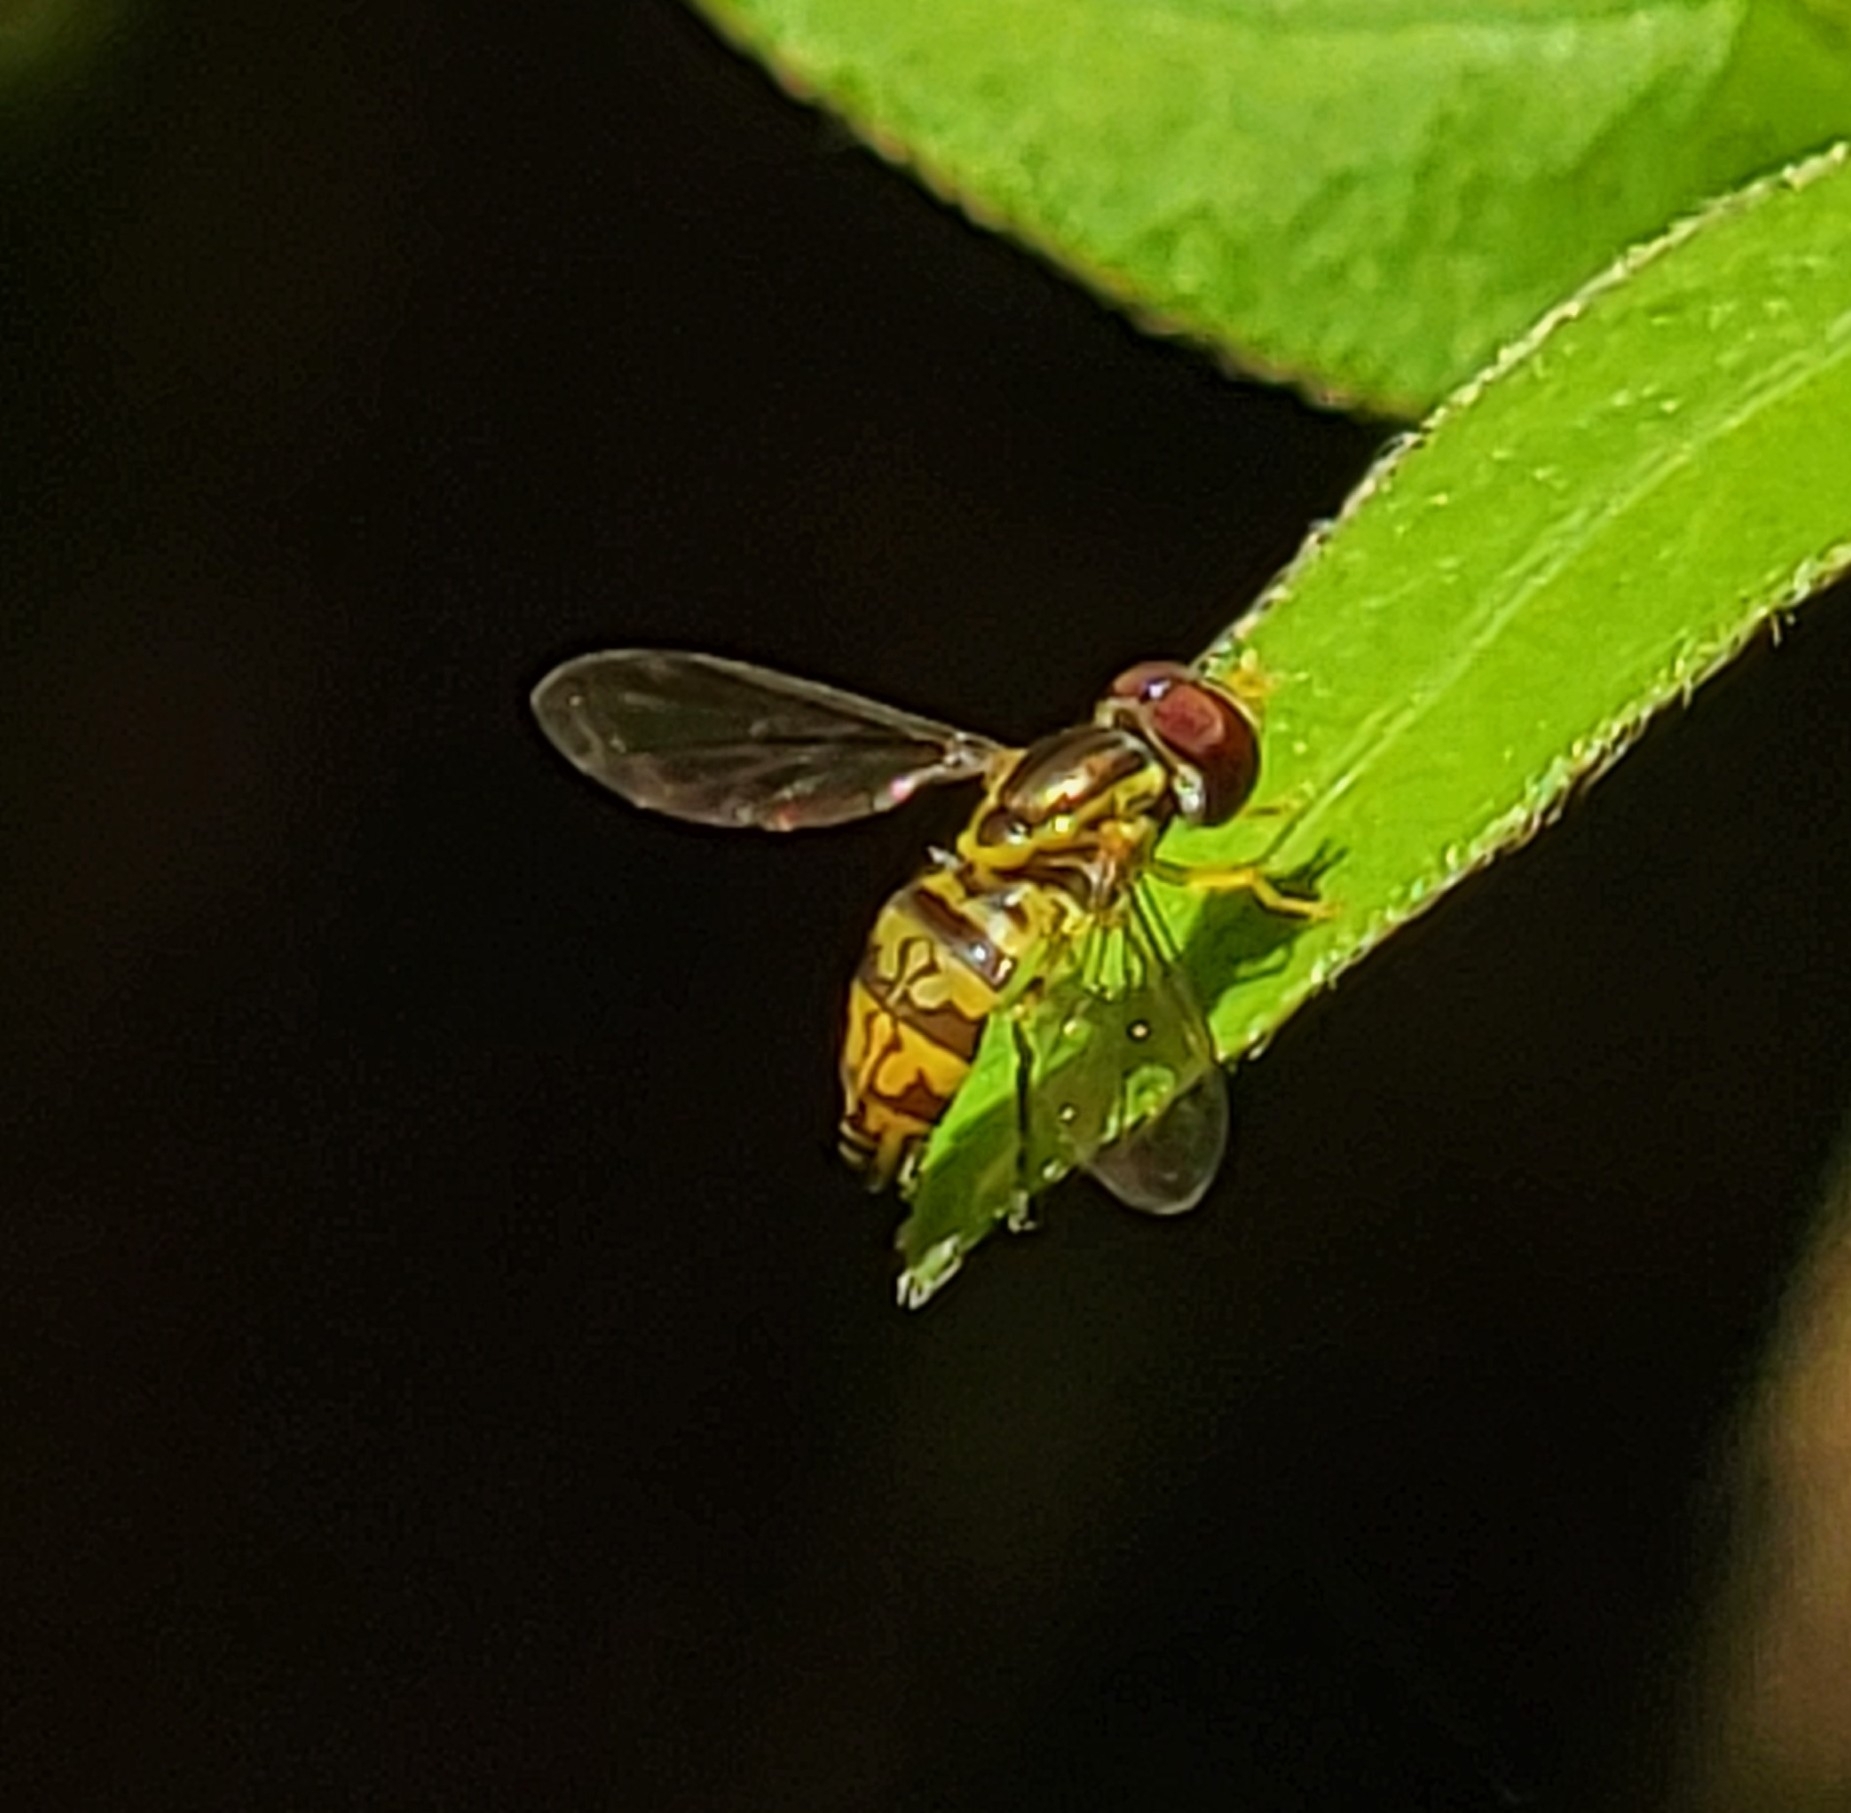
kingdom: Animalia
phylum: Arthropoda
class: Insecta
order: Diptera
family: Syrphidae
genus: Toxomerus
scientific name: Toxomerus geminatus
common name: Eastern calligrapher
